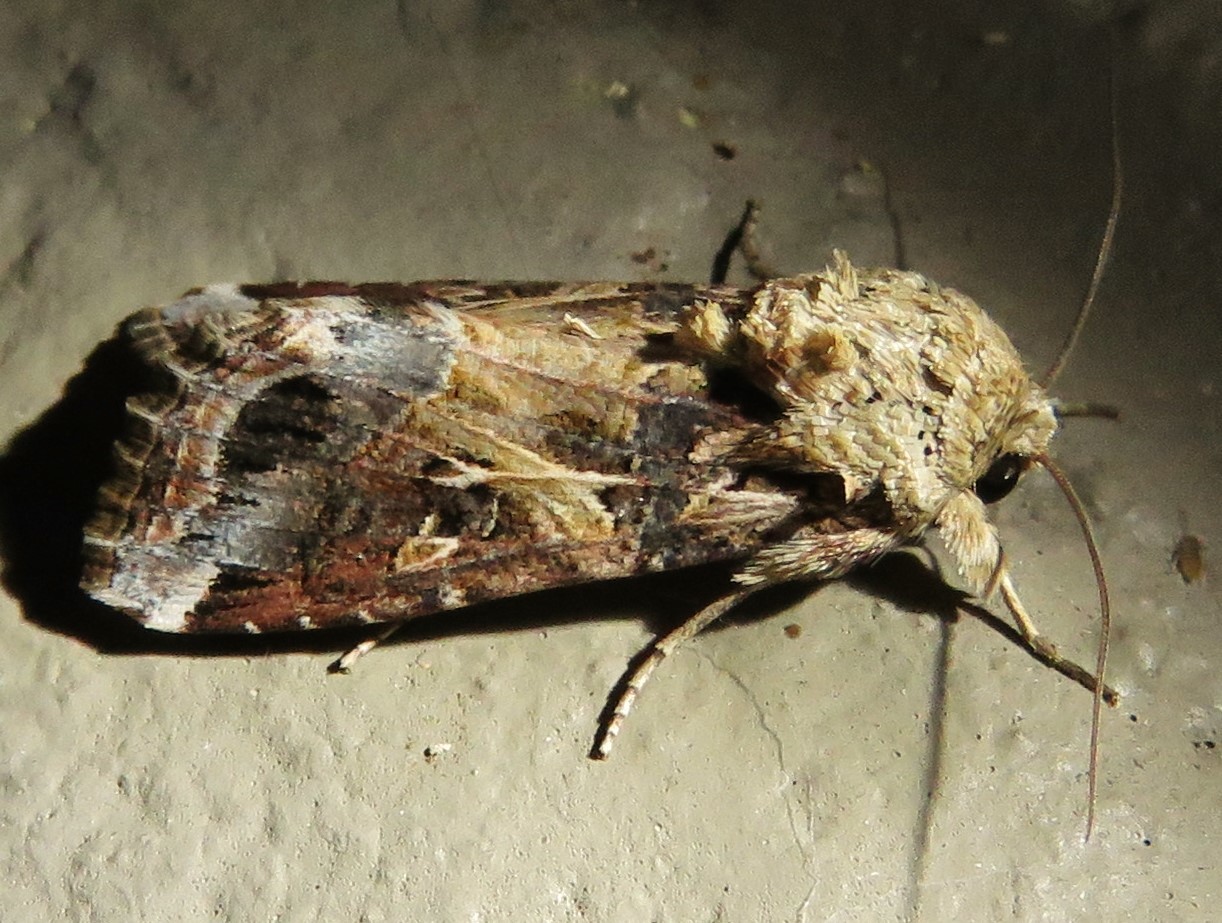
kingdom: Animalia
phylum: Arthropoda
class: Insecta
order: Lepidoptera
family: Noctuidae
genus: Spodoptera
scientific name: Spodoptera ornithogalli
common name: Yellow-striped armyworm
